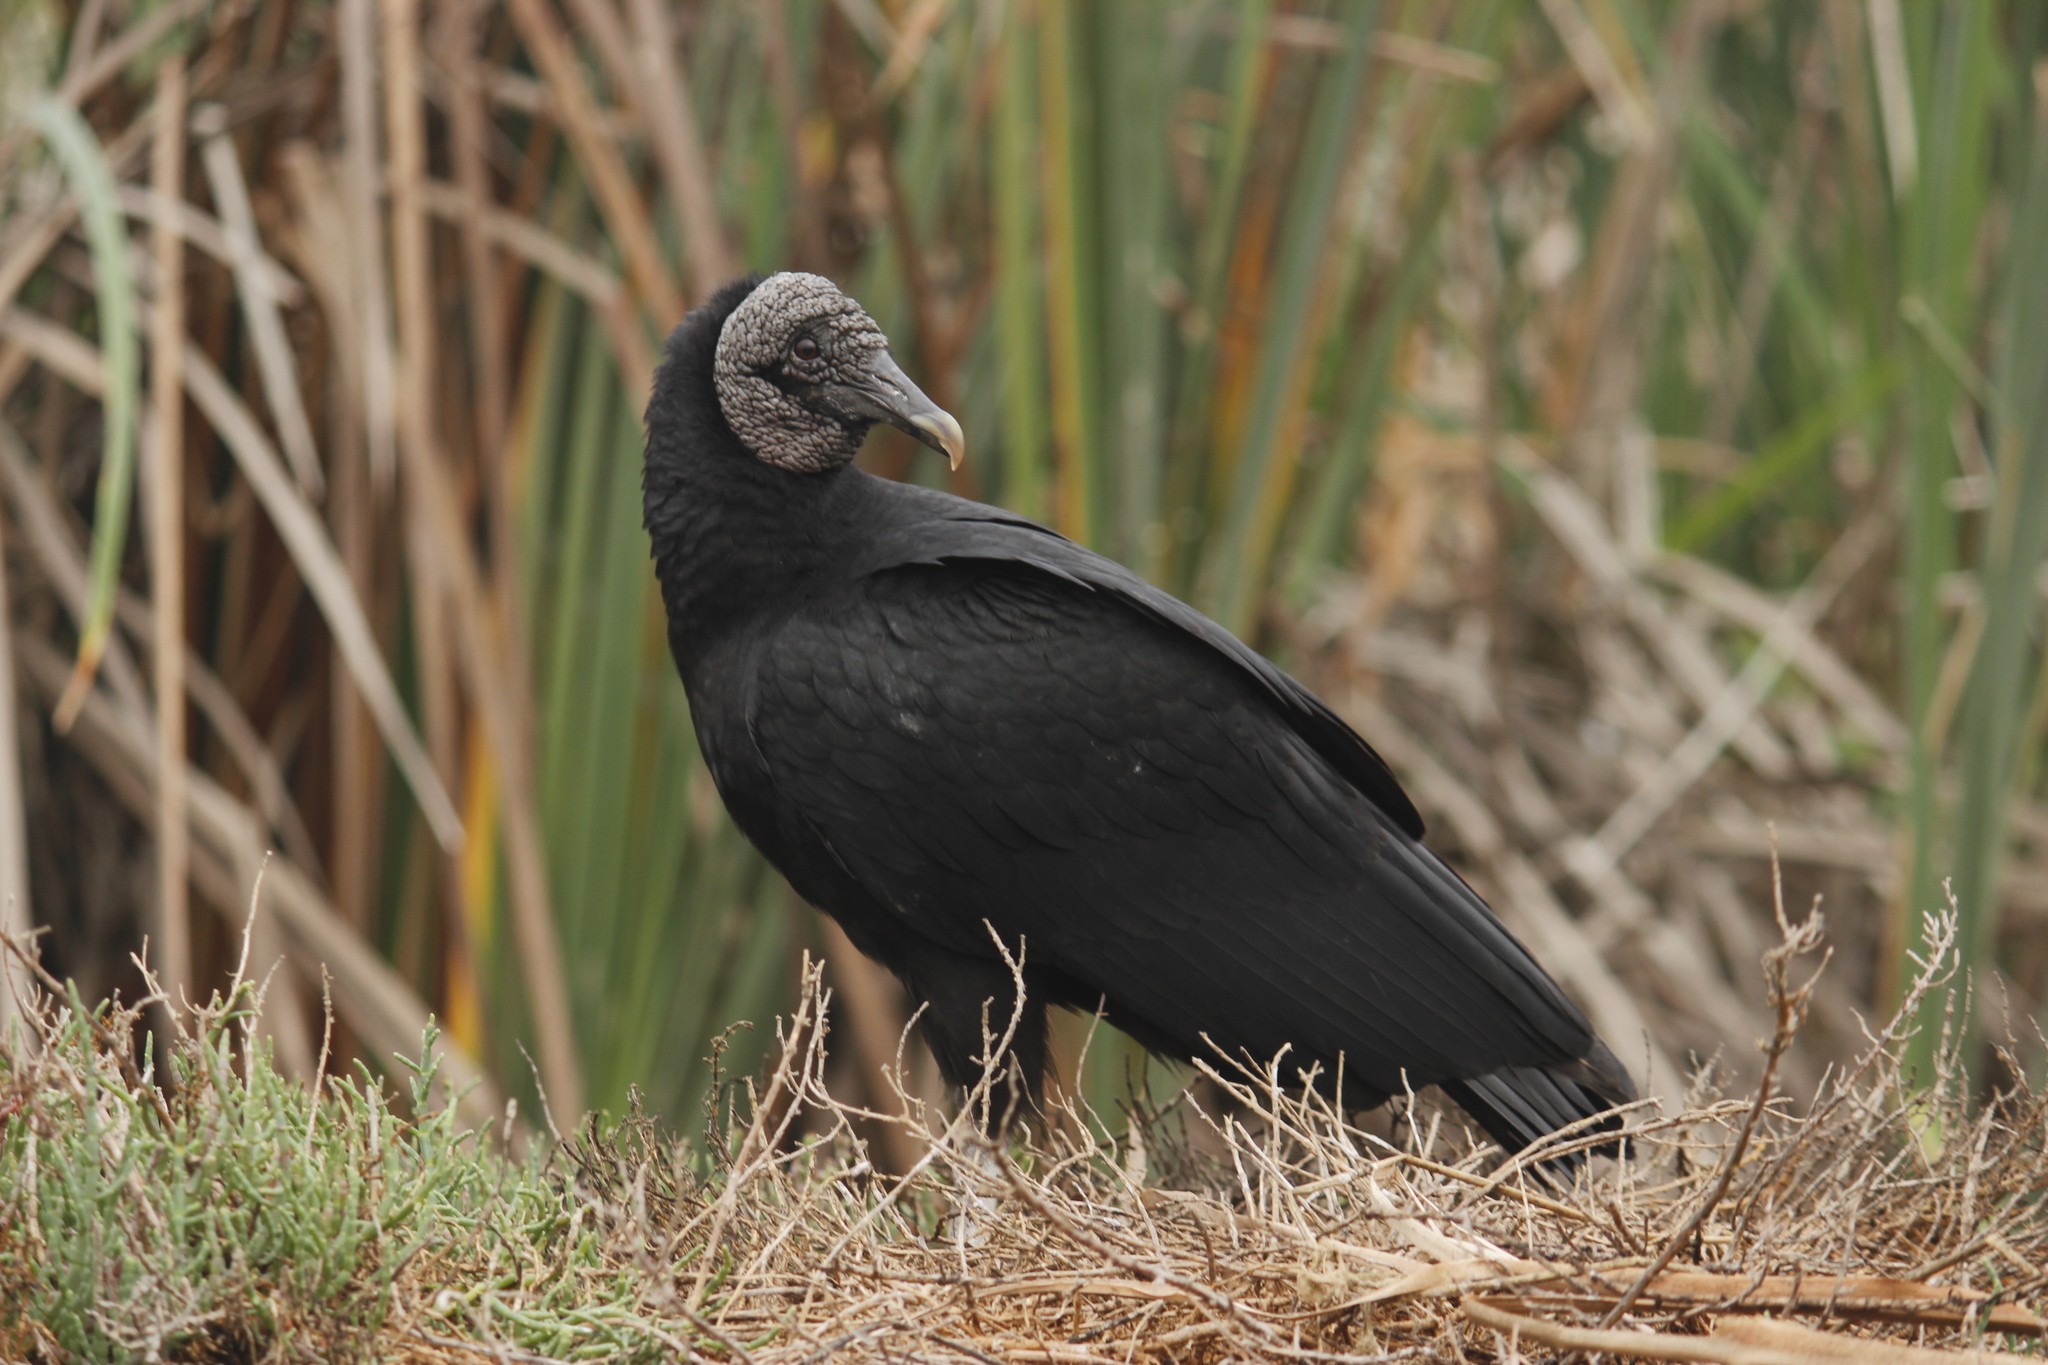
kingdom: Animalia
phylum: Chordata
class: Aves
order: Accipitriformes
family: Cathartidae
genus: Coragyps
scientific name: Coragyps atratus
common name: Black vulture
